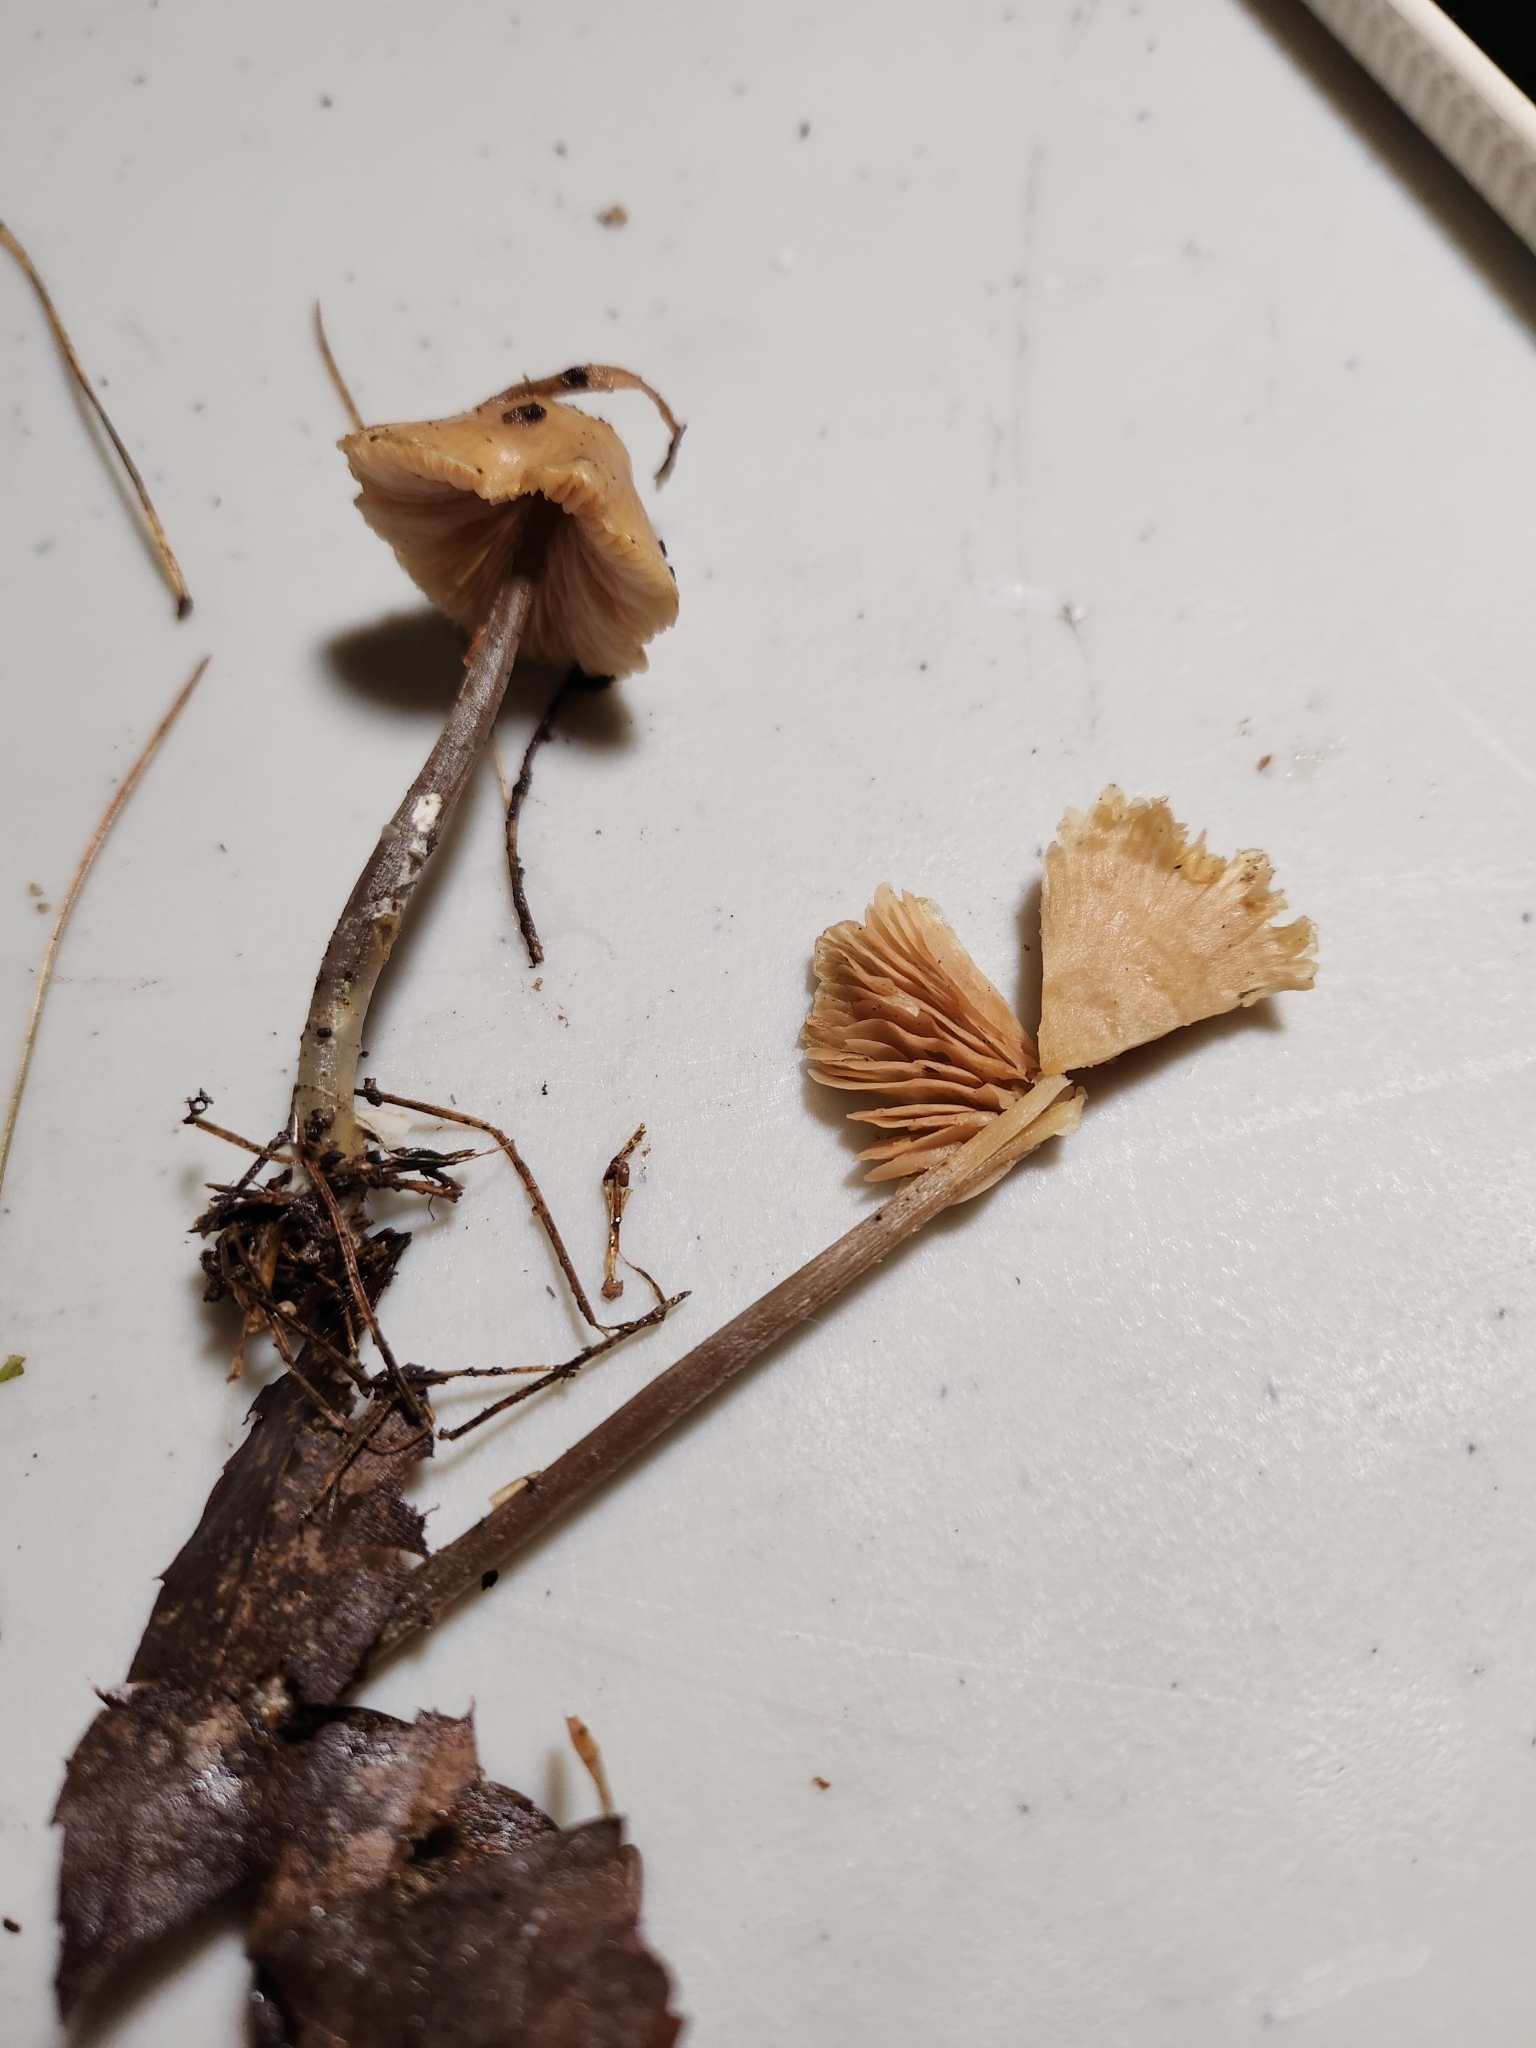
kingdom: Fungi
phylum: Basidiomycota
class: Agaricomycetes
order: Agaricales
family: Entolomataceae
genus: Entoloma
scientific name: Entoloma alboumbonatum
